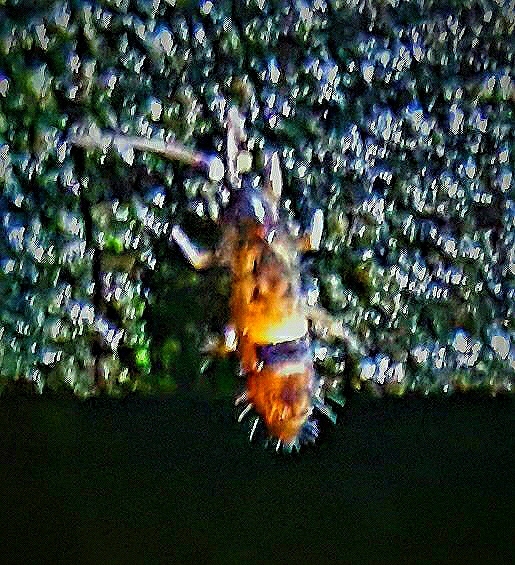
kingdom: Animalia
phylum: Arthropoda
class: Collembola
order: Entomobryomorpha
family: Orchesellidae
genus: Orchesella
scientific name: Orchesella cincta
